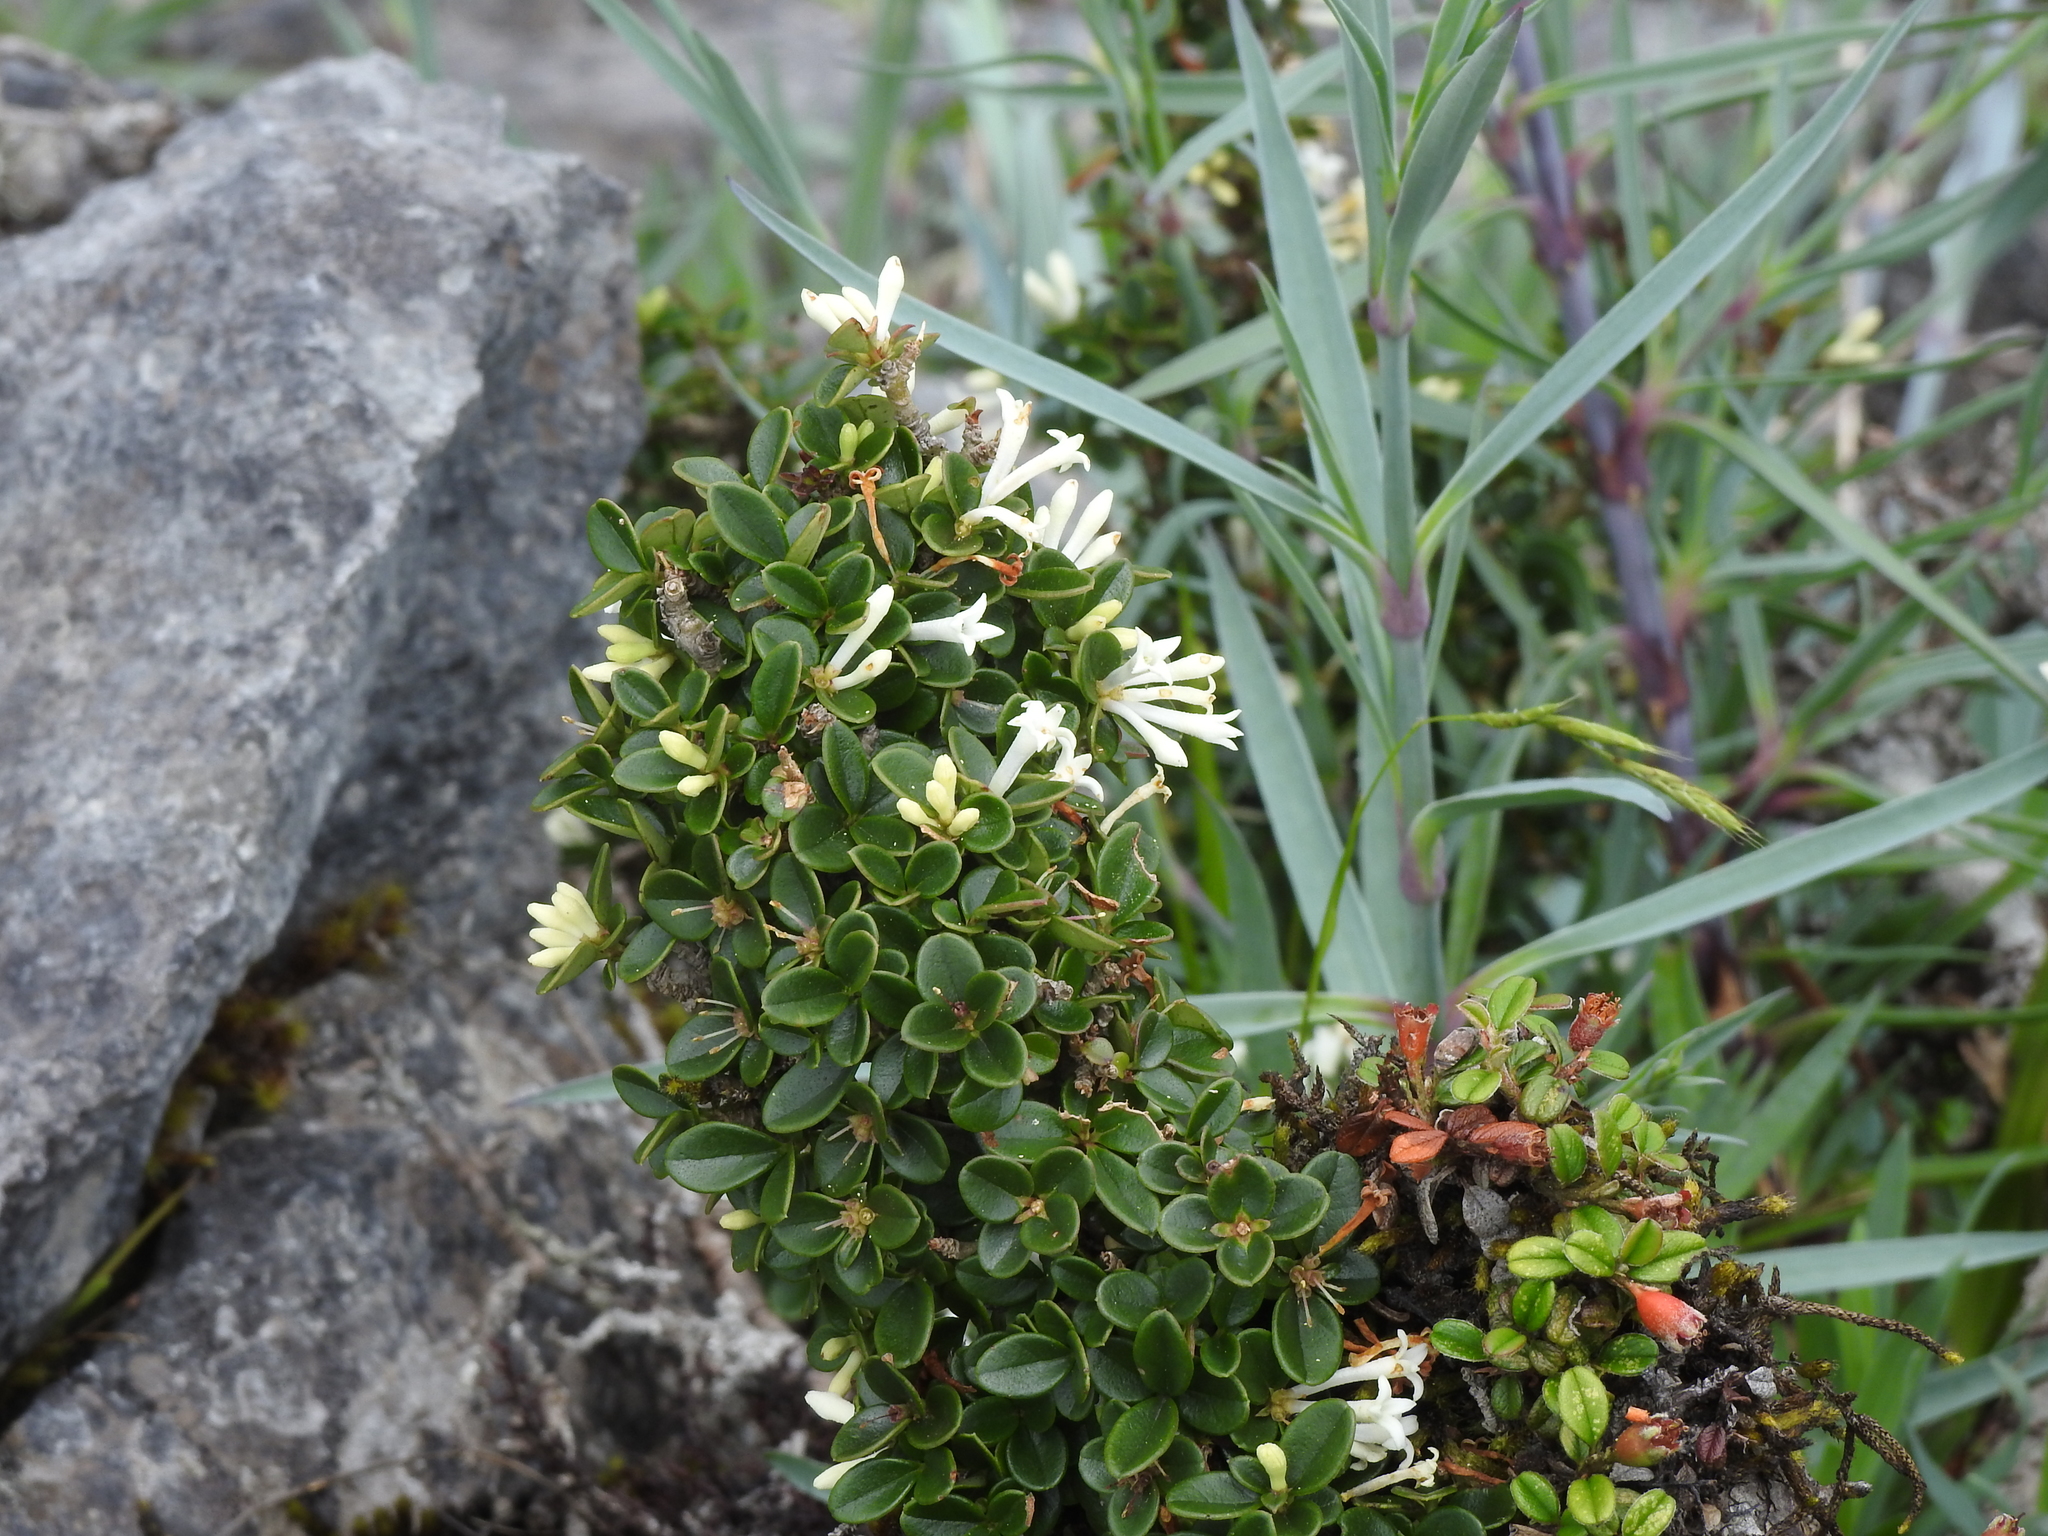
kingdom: Plantae
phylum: Tracheophyta
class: Magnoliopsida
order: Lamiales
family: Oleaceae
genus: Ligustrum
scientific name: Ligustrum morrisonense
